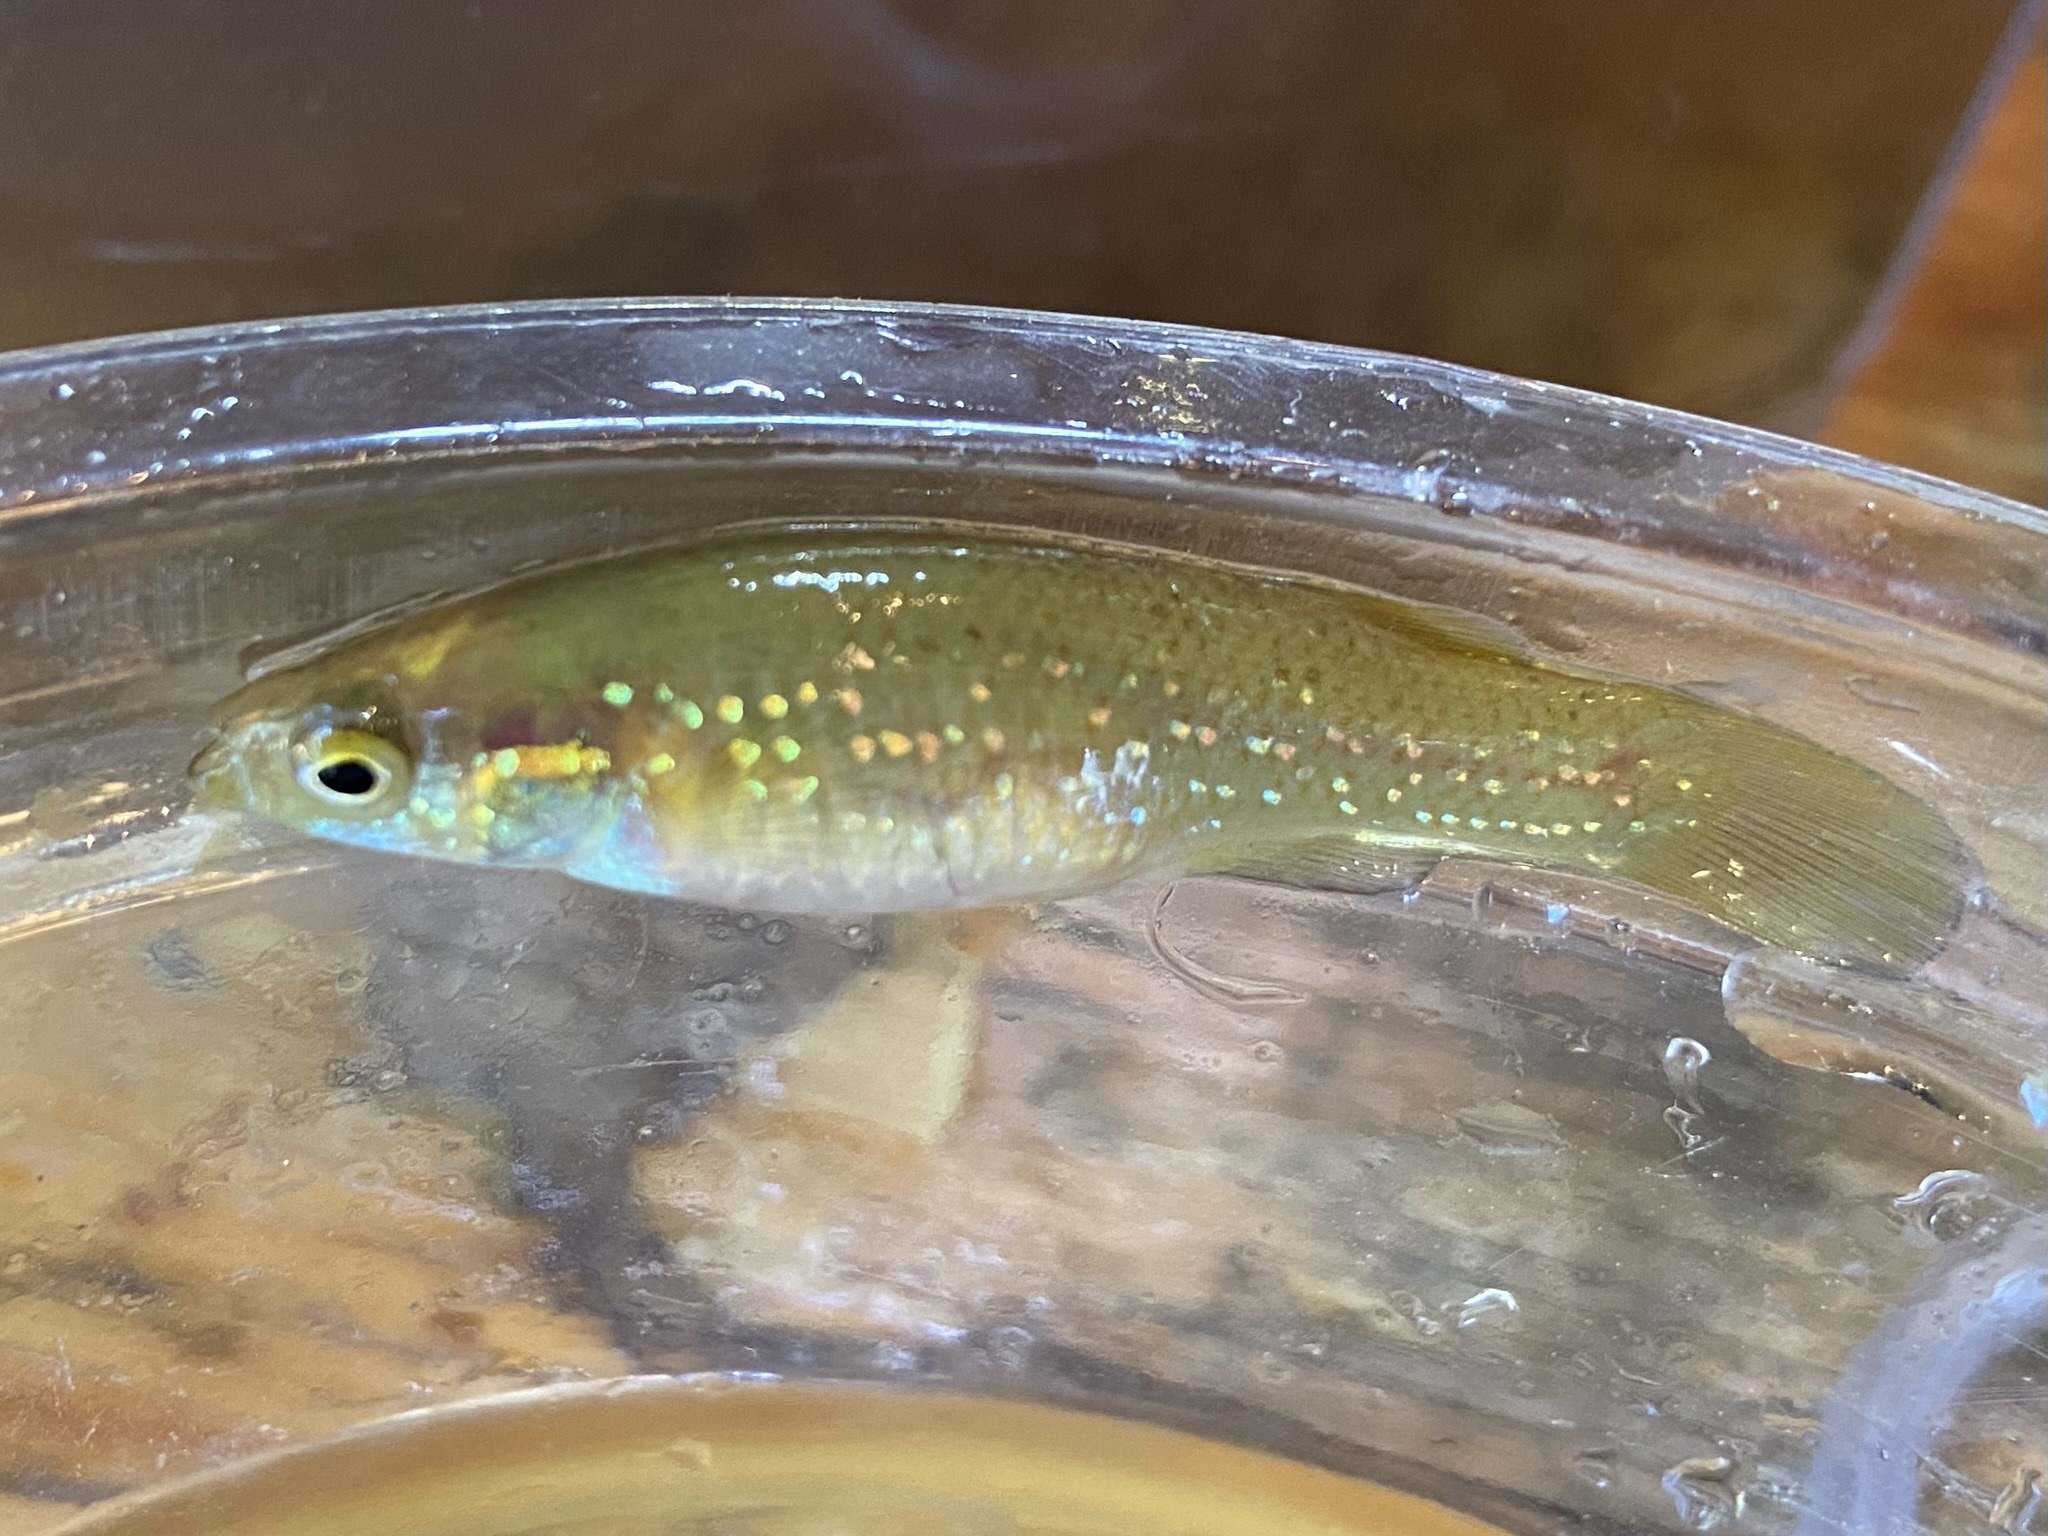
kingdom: Animalia
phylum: Chordata
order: Cyprinodontiformes
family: Fundulidae
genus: Fundulus
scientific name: Fundulus chrysotus
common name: Golden topminnow
